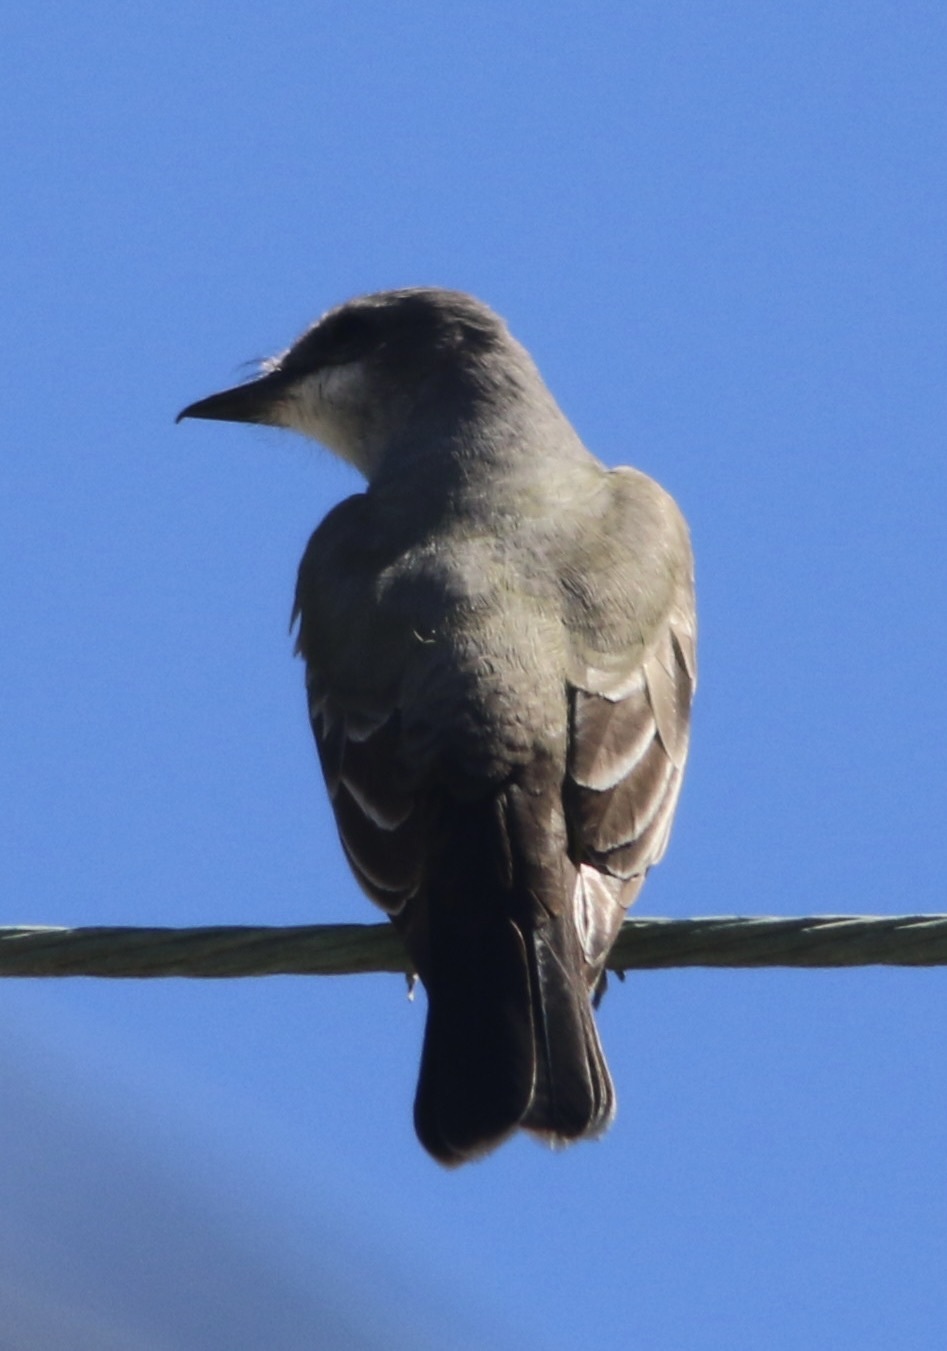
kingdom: Animalia
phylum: Chordata
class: Aves
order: Passeriformes
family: Tyrannidae
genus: Tyrannus
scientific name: Tyrannus vociferans
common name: Cassin's kingbird
